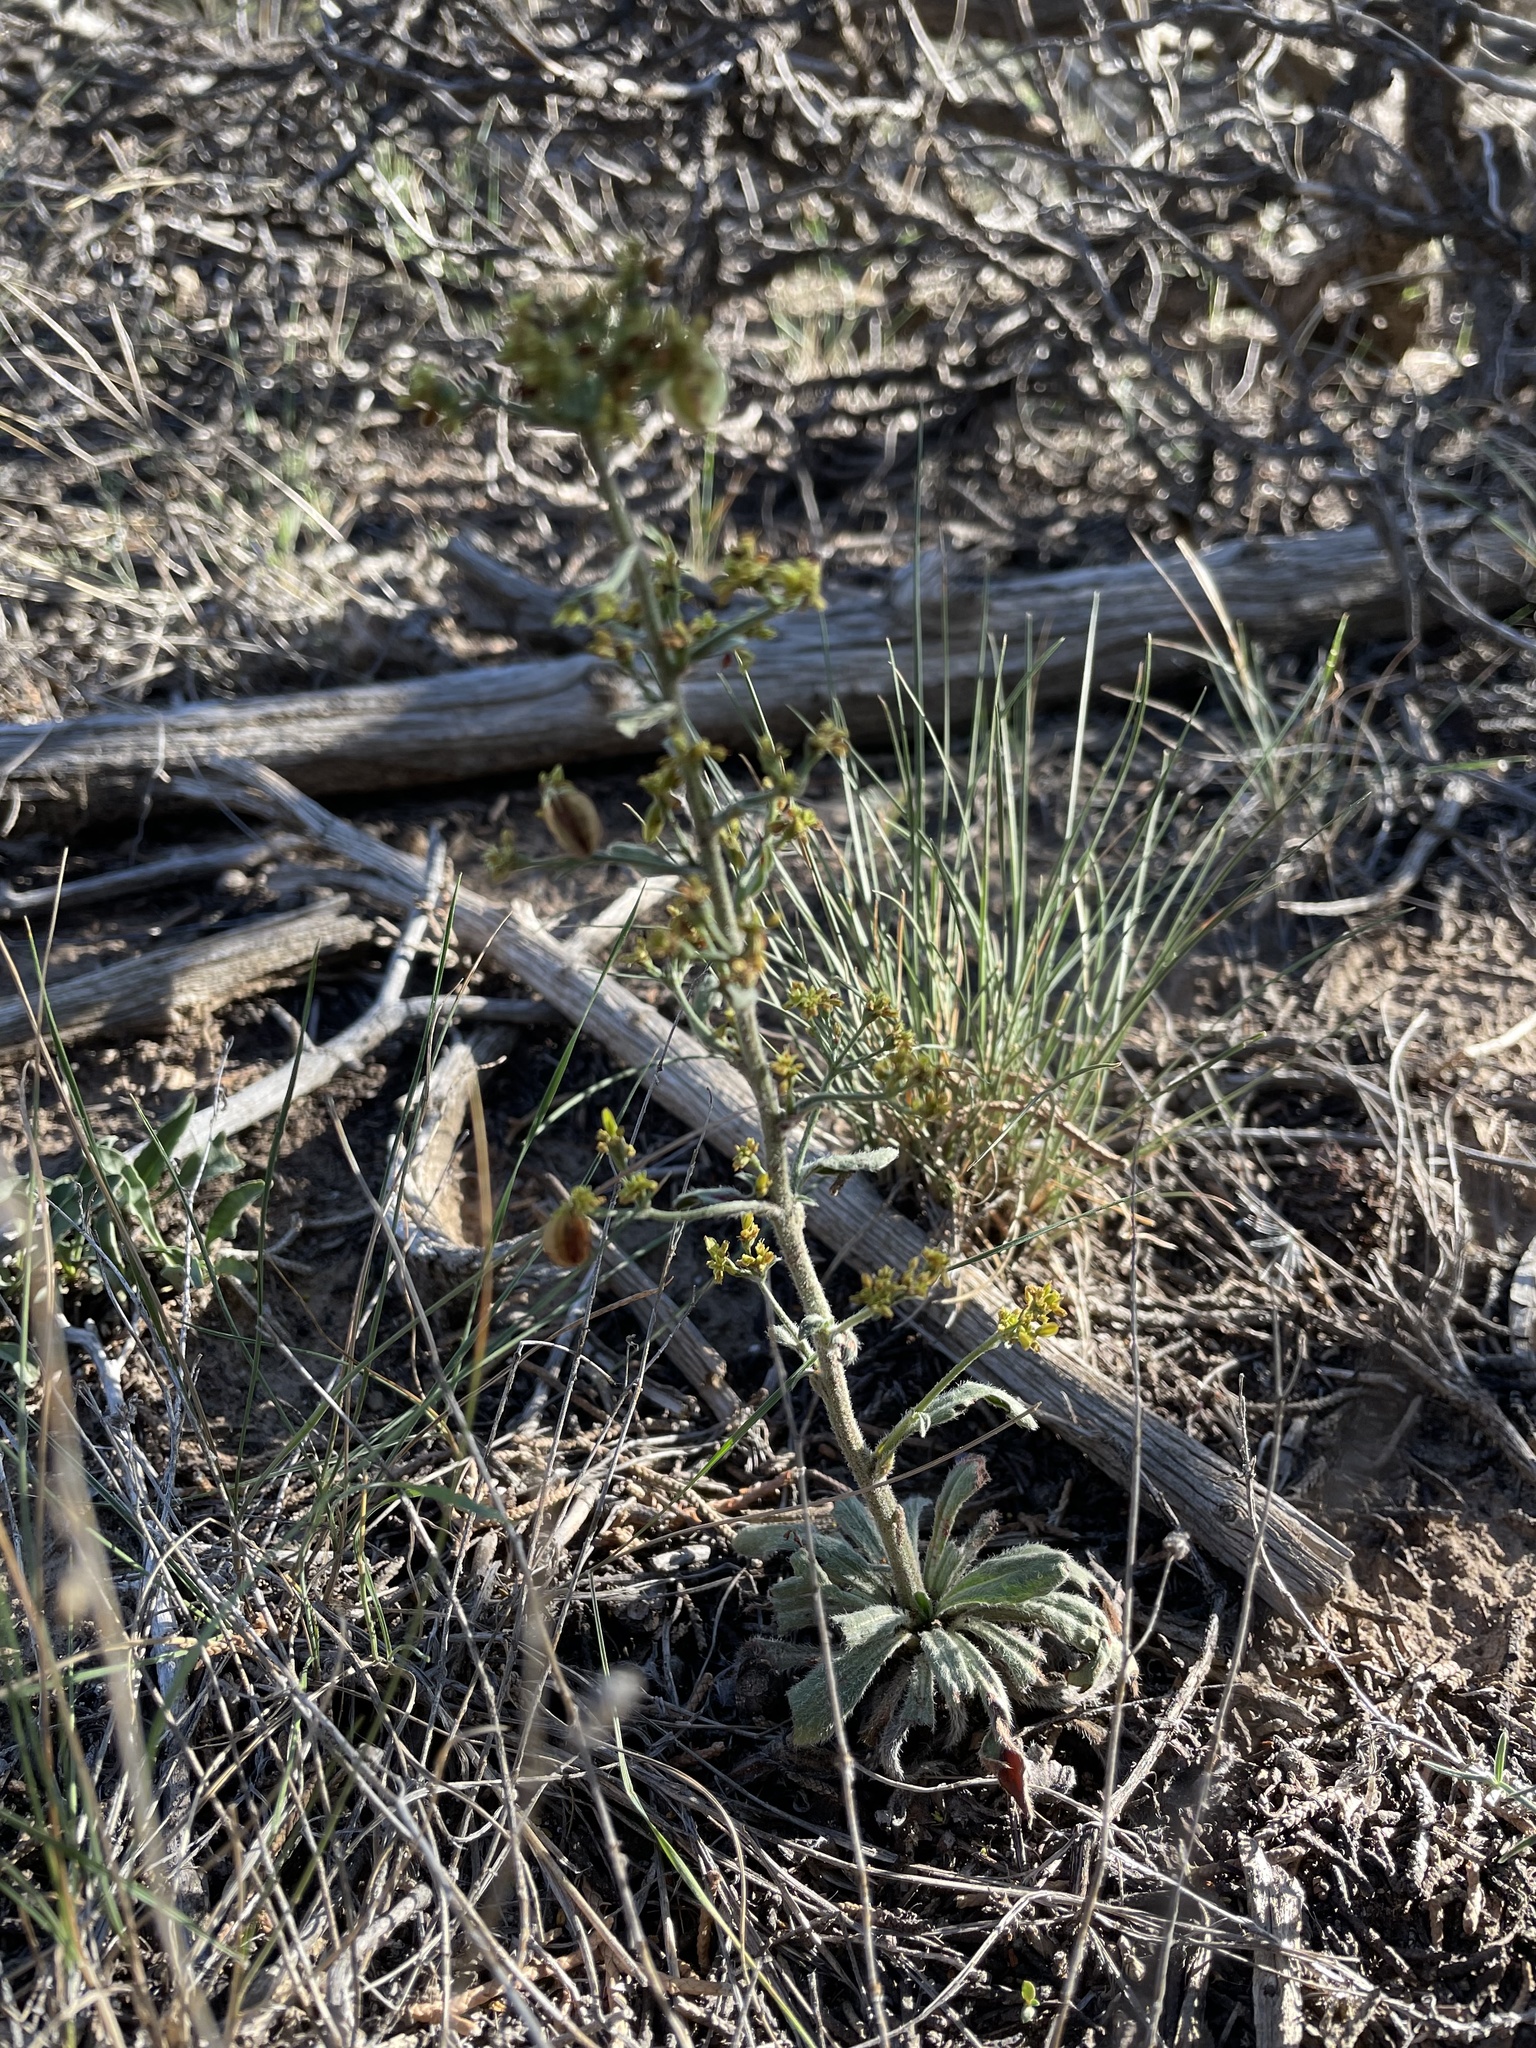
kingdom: Plantae
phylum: Tracheophyta
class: Magnoliopsida
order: Caryophyllales
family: Polygonaceae
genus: Eriogonum
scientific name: Eriogonum alatum
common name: Winged eriogonum
